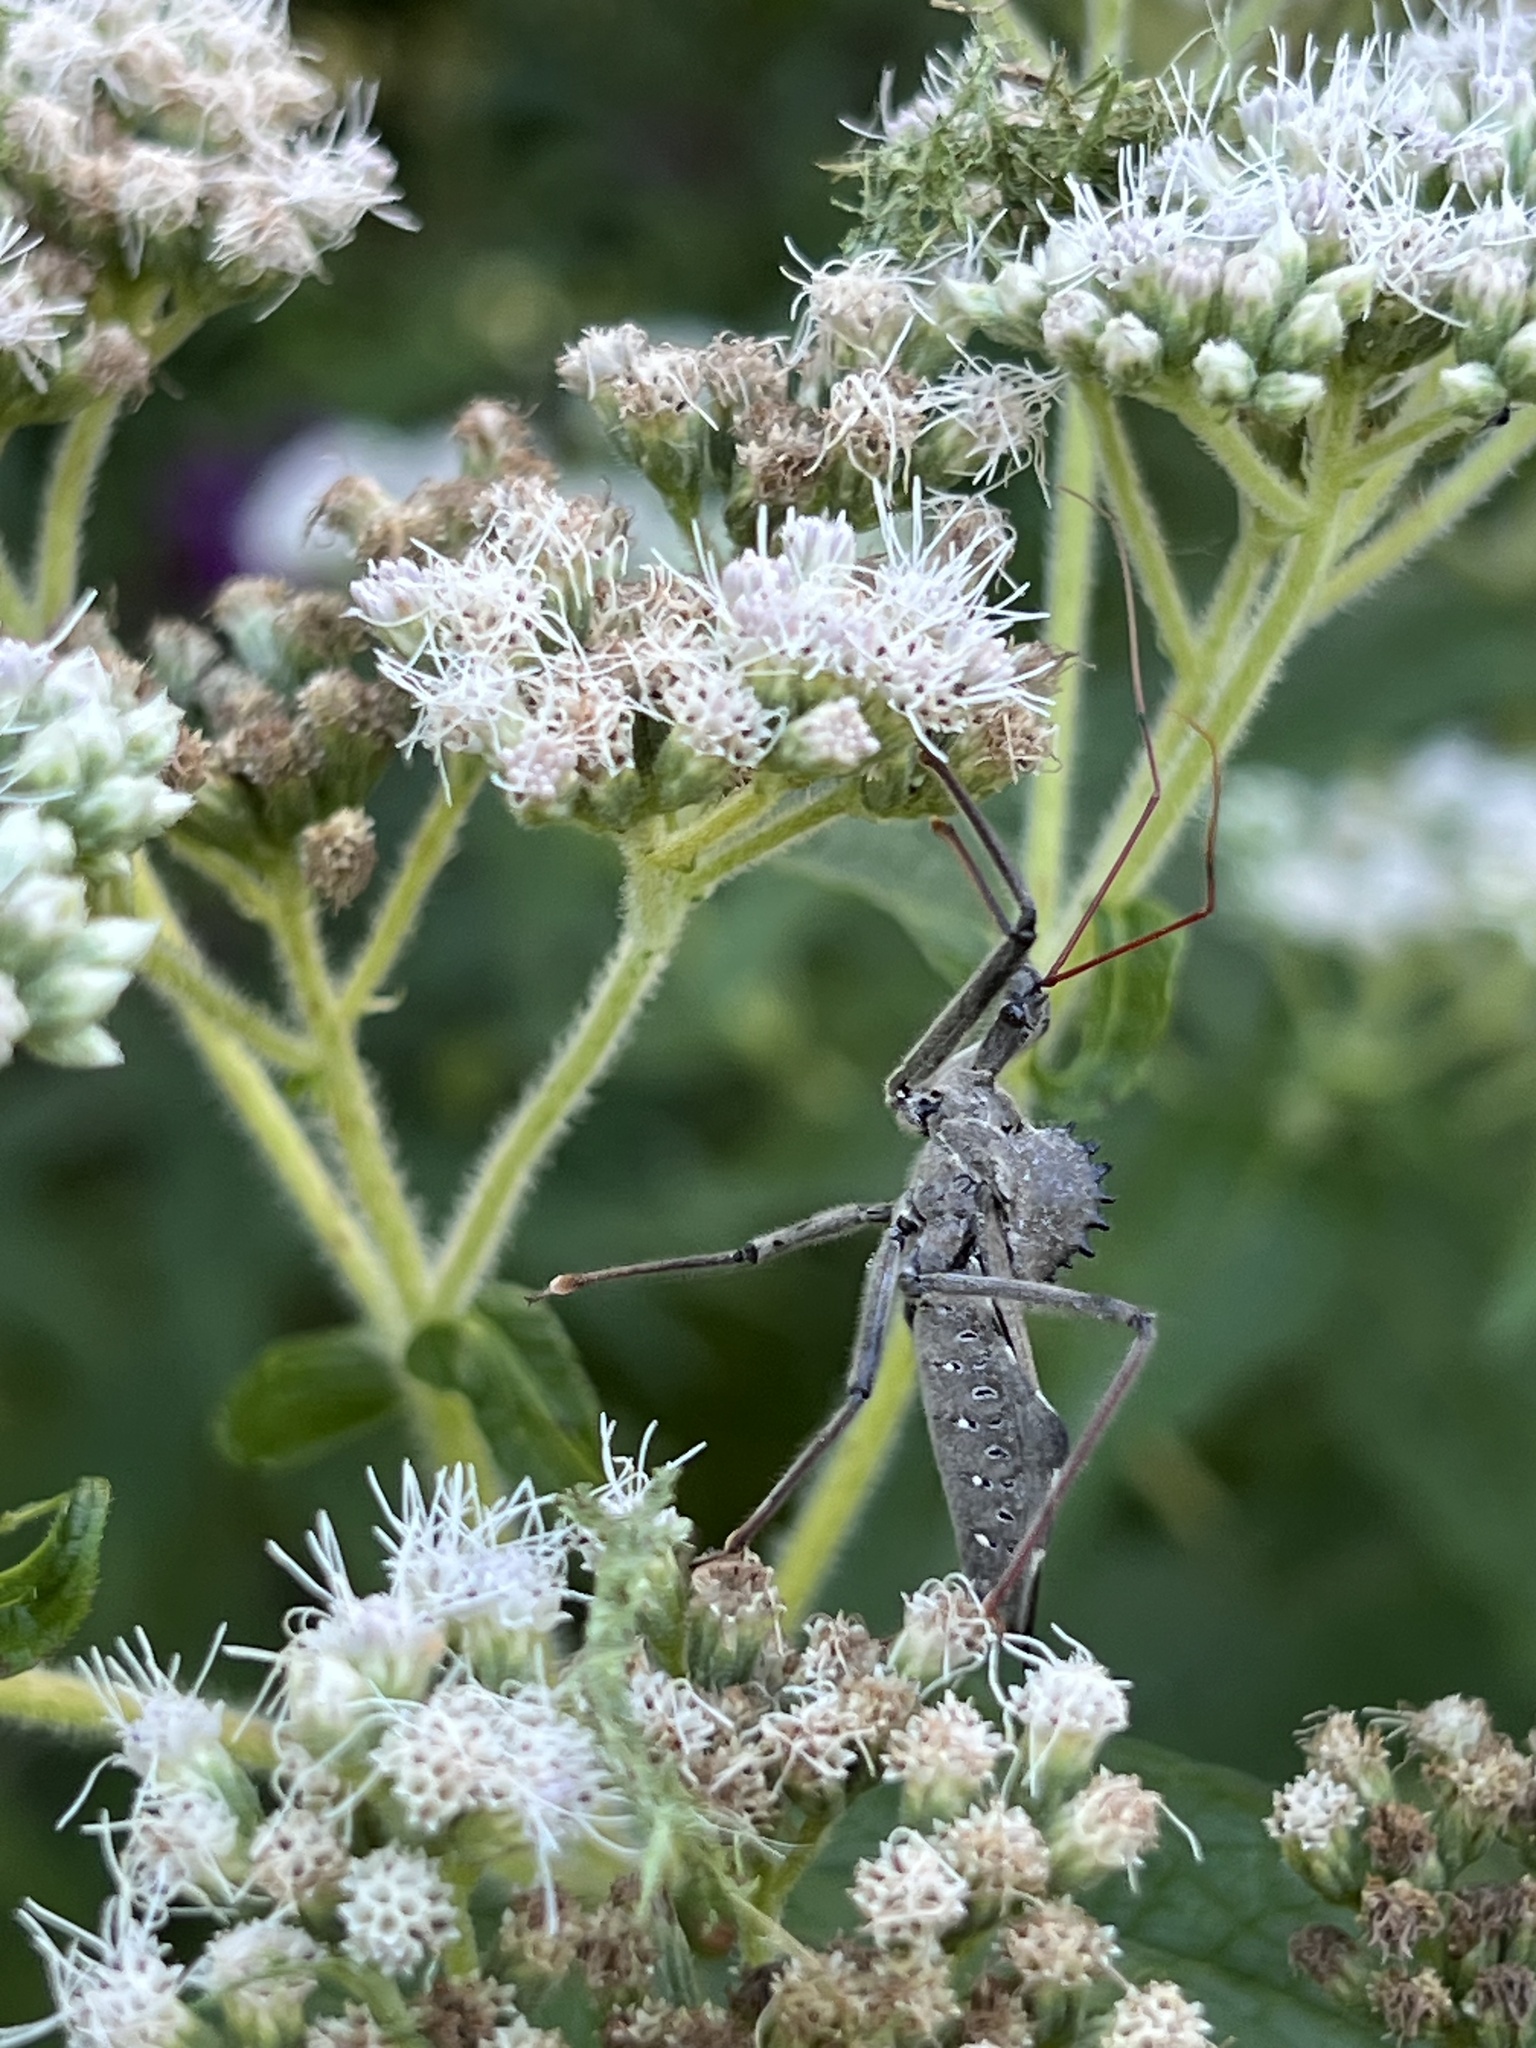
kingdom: Animalia
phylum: Arthropoda
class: Insecta
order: Hemiptera
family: Reduviidae
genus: Arilus
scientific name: Arilus cristatus
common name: North american wheel bug
